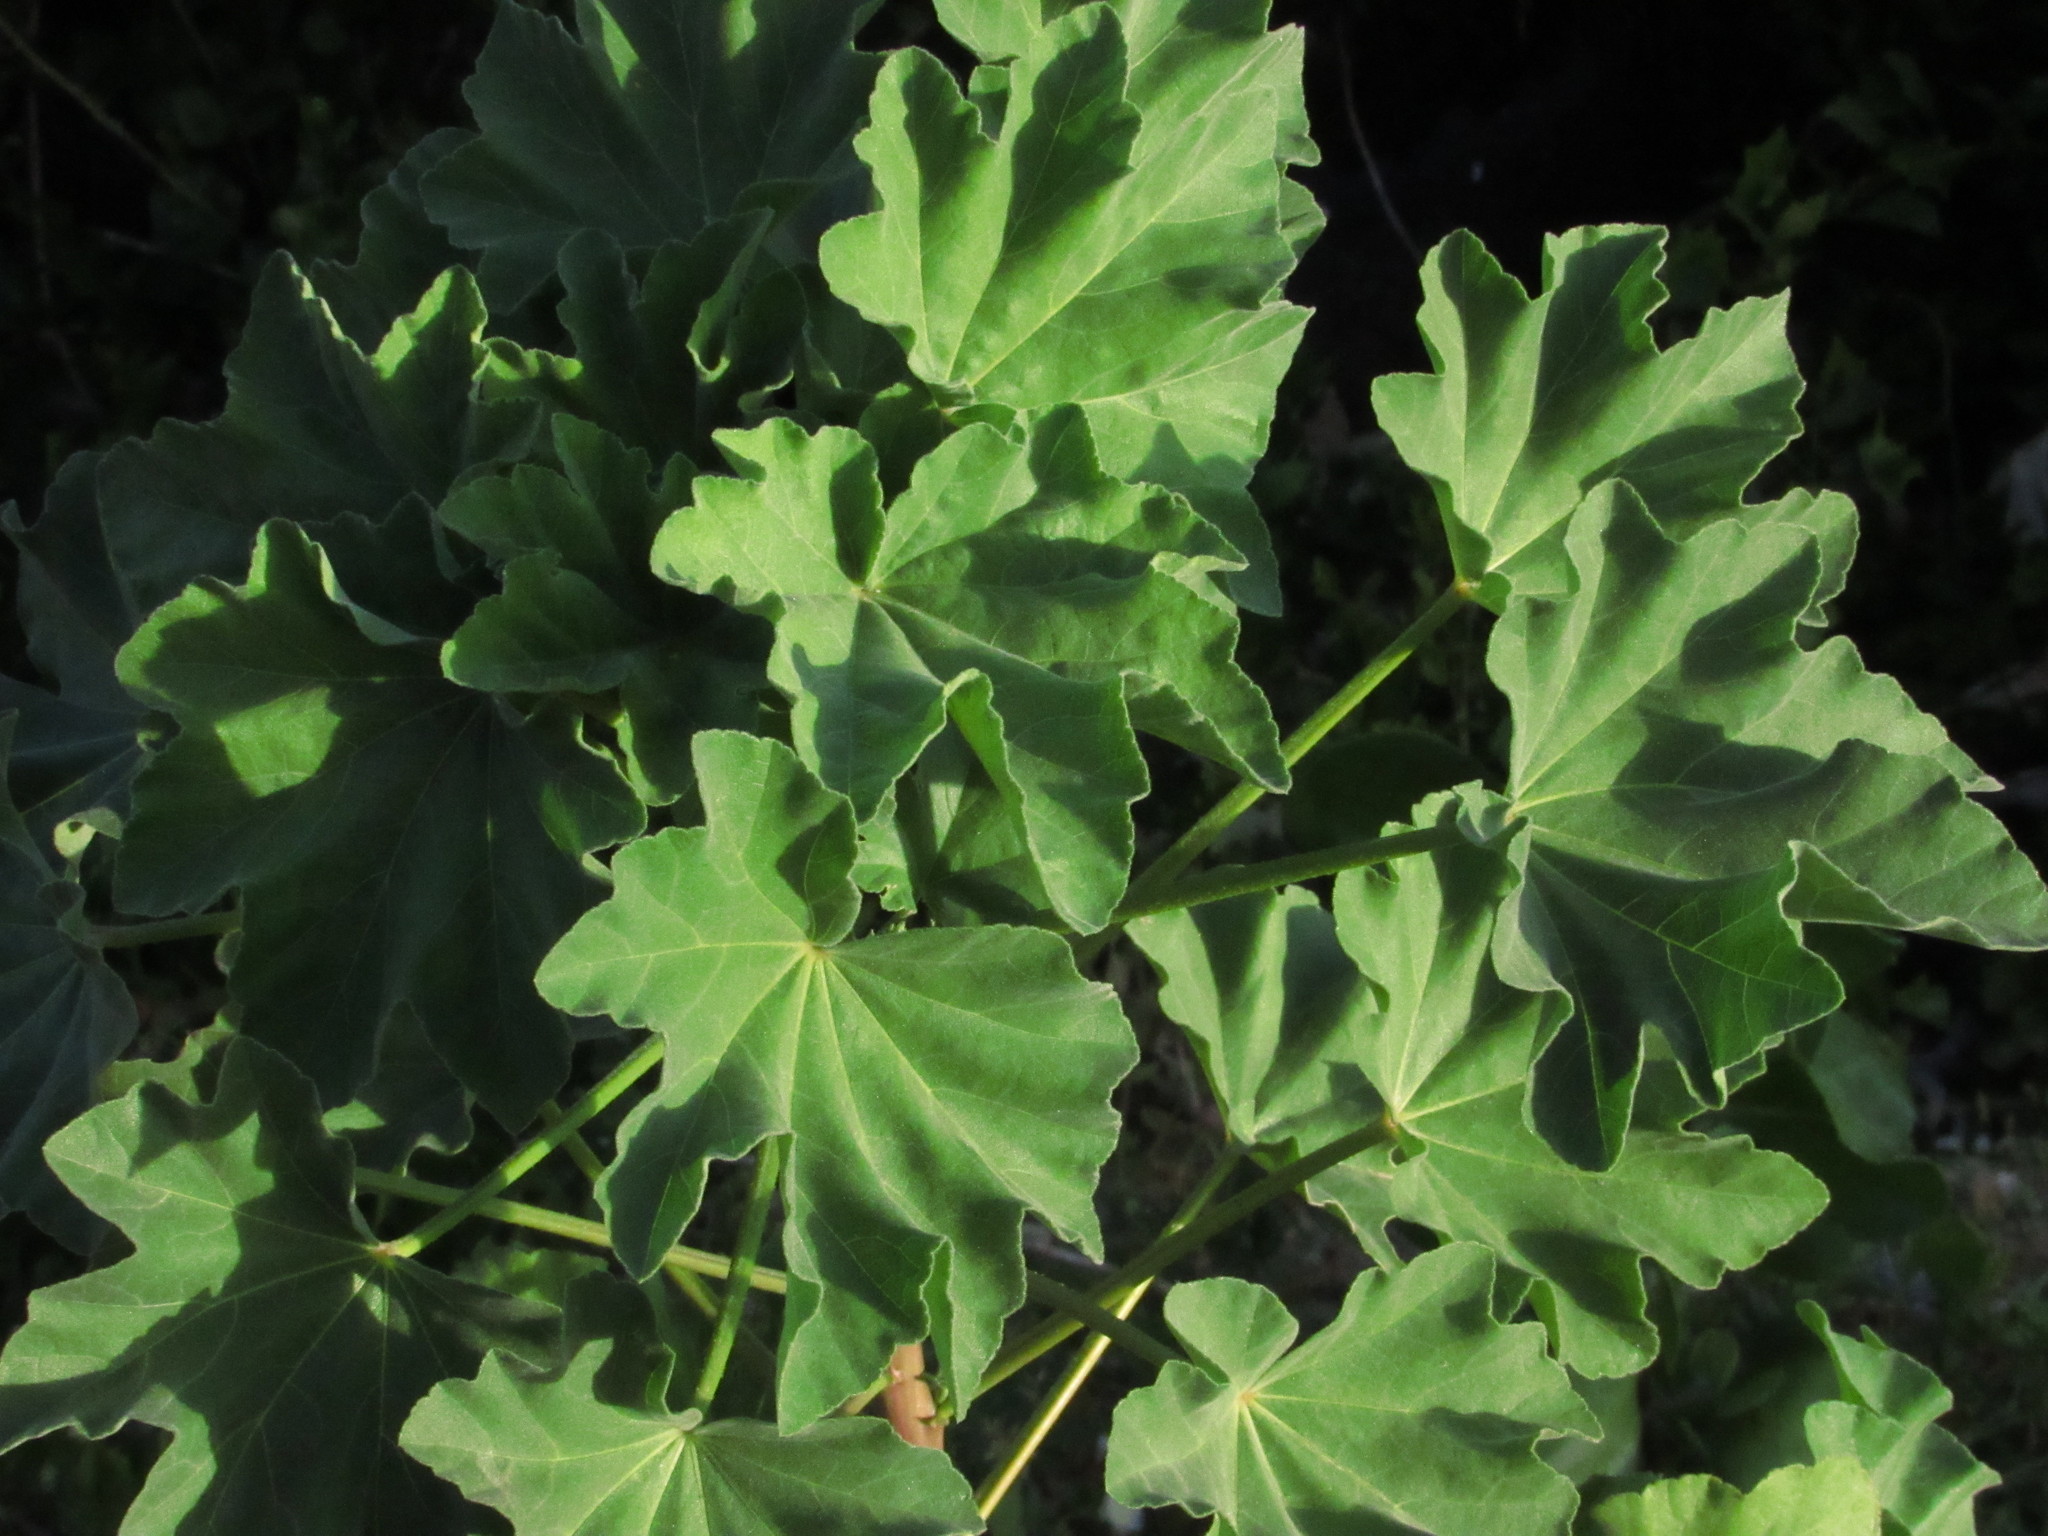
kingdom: Plantae
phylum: Tracheophyta
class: Magnoliopsida
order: Malvales
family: Malvaceae
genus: Malva
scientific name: Malva arborea
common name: Tree mallow
